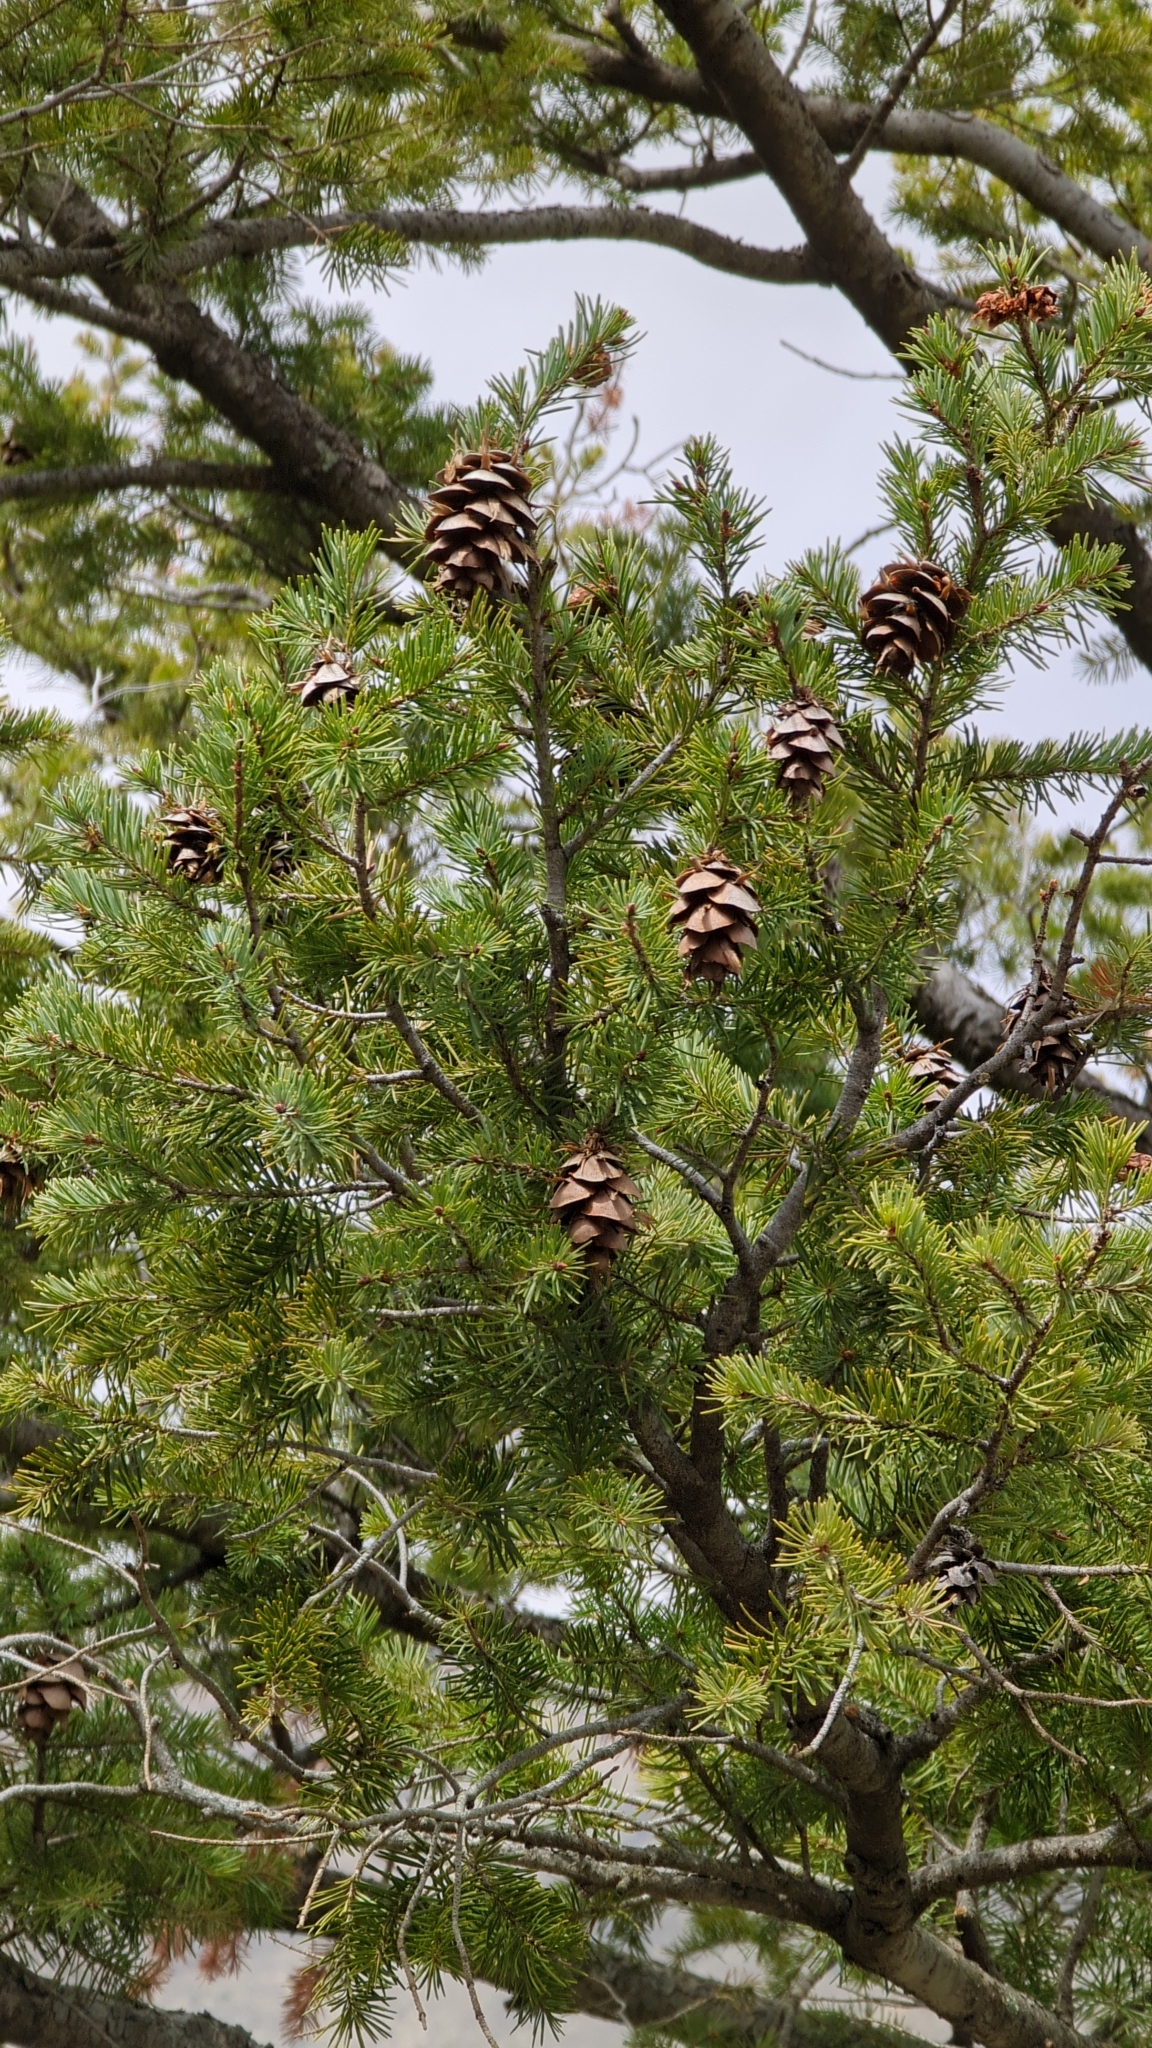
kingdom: Plantae
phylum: Tracheophyta
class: Pinopsida
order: Pinales
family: Pinaceae
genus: Pseudotsuga
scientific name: Pseudotsuga menziesii
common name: Douglas fir
